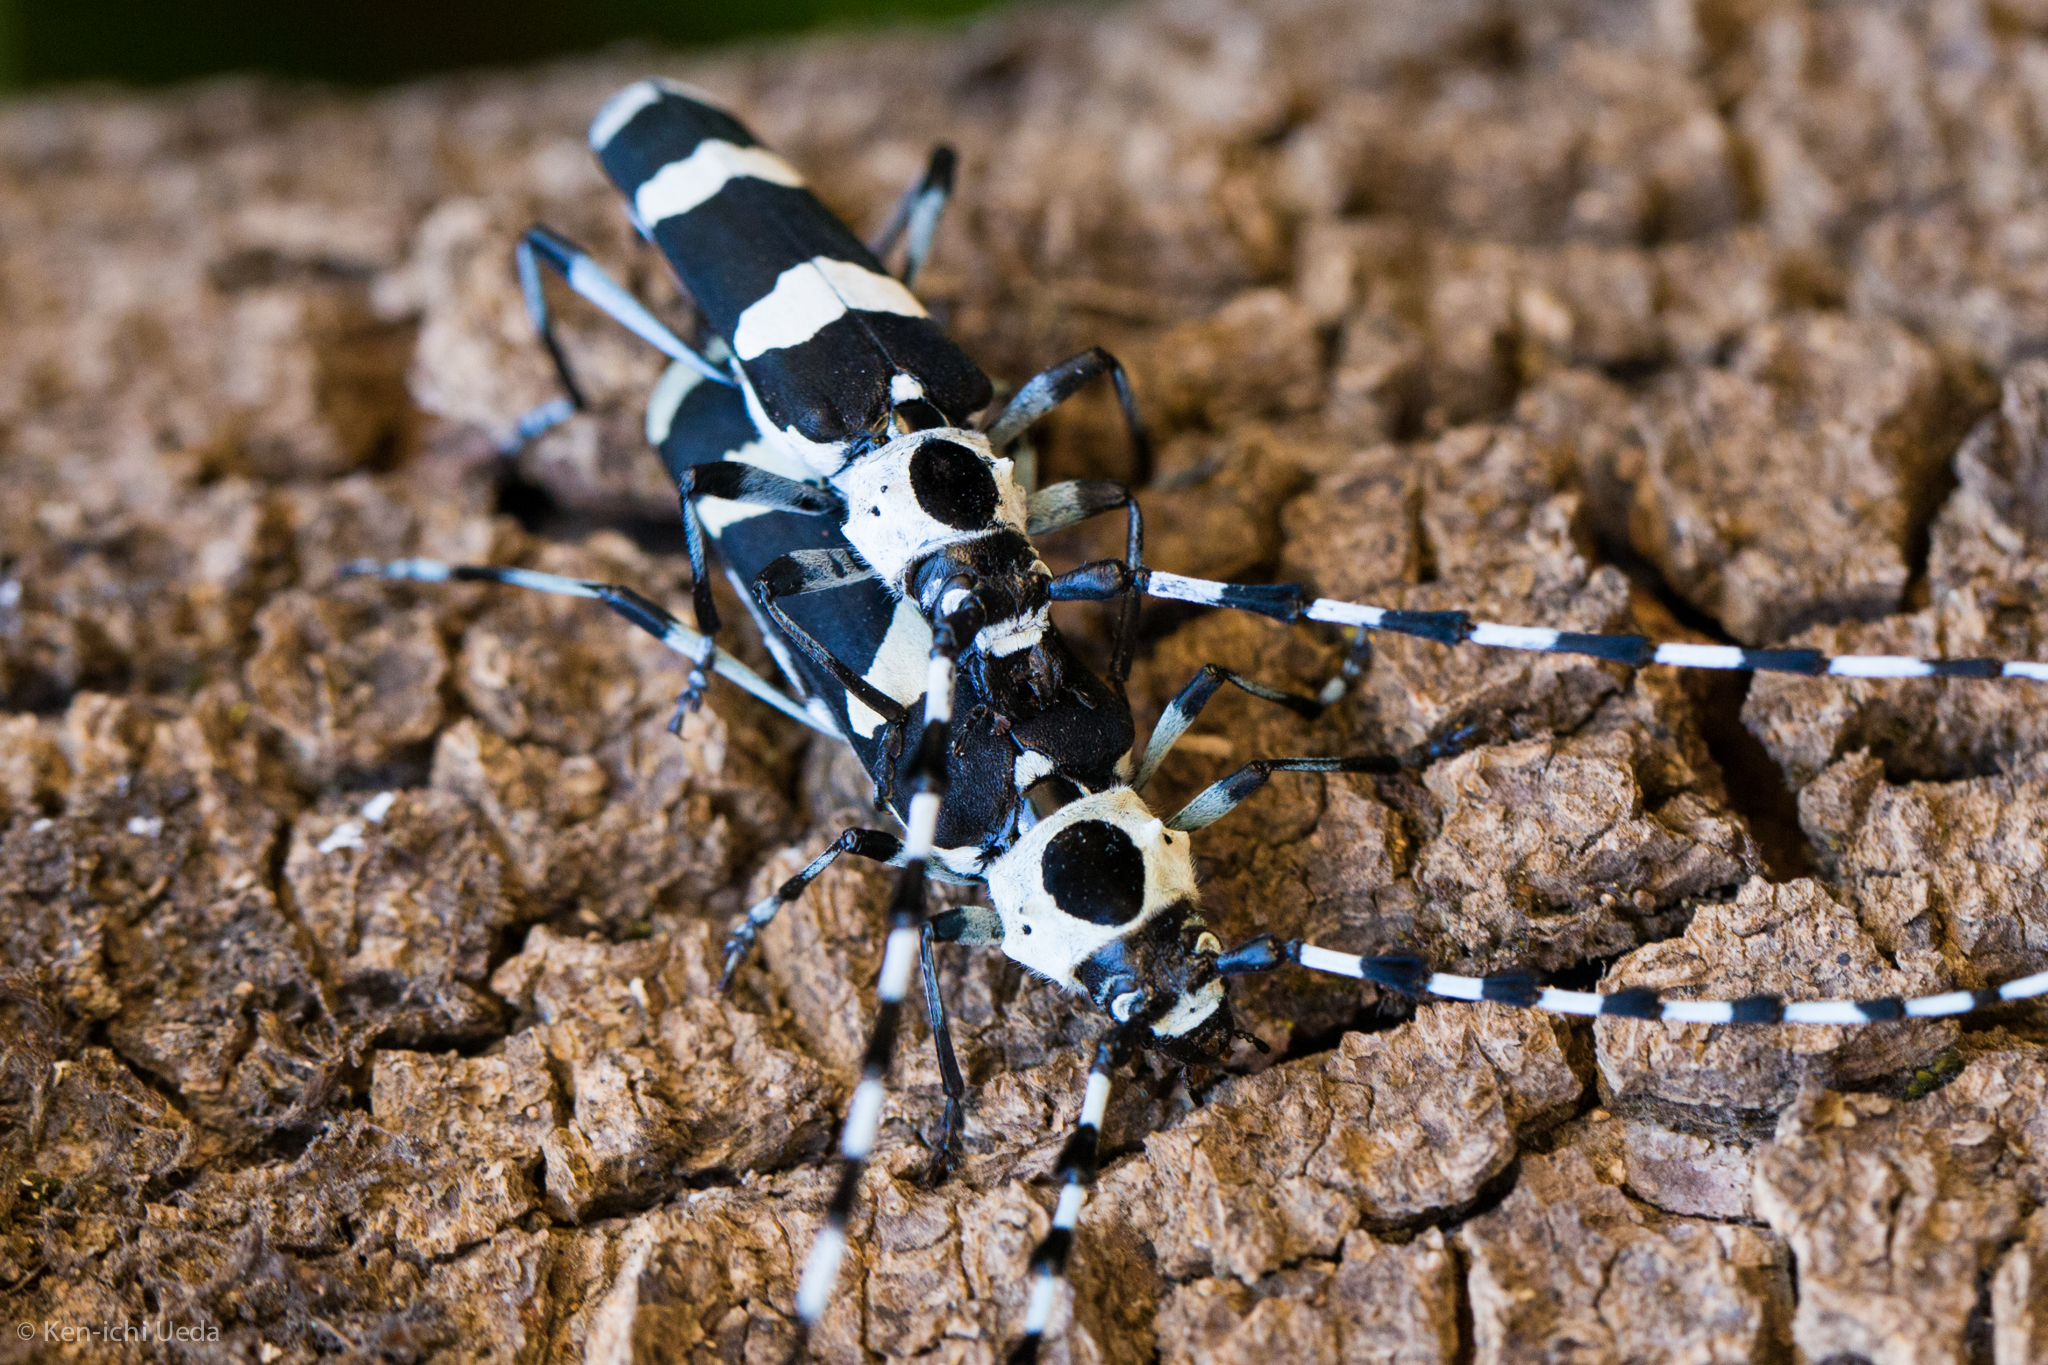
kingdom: Animalia
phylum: Arthropoda
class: Insecta
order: Coleoptera
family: Cerambycidae
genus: Rosalia
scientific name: Rosalia funebris
